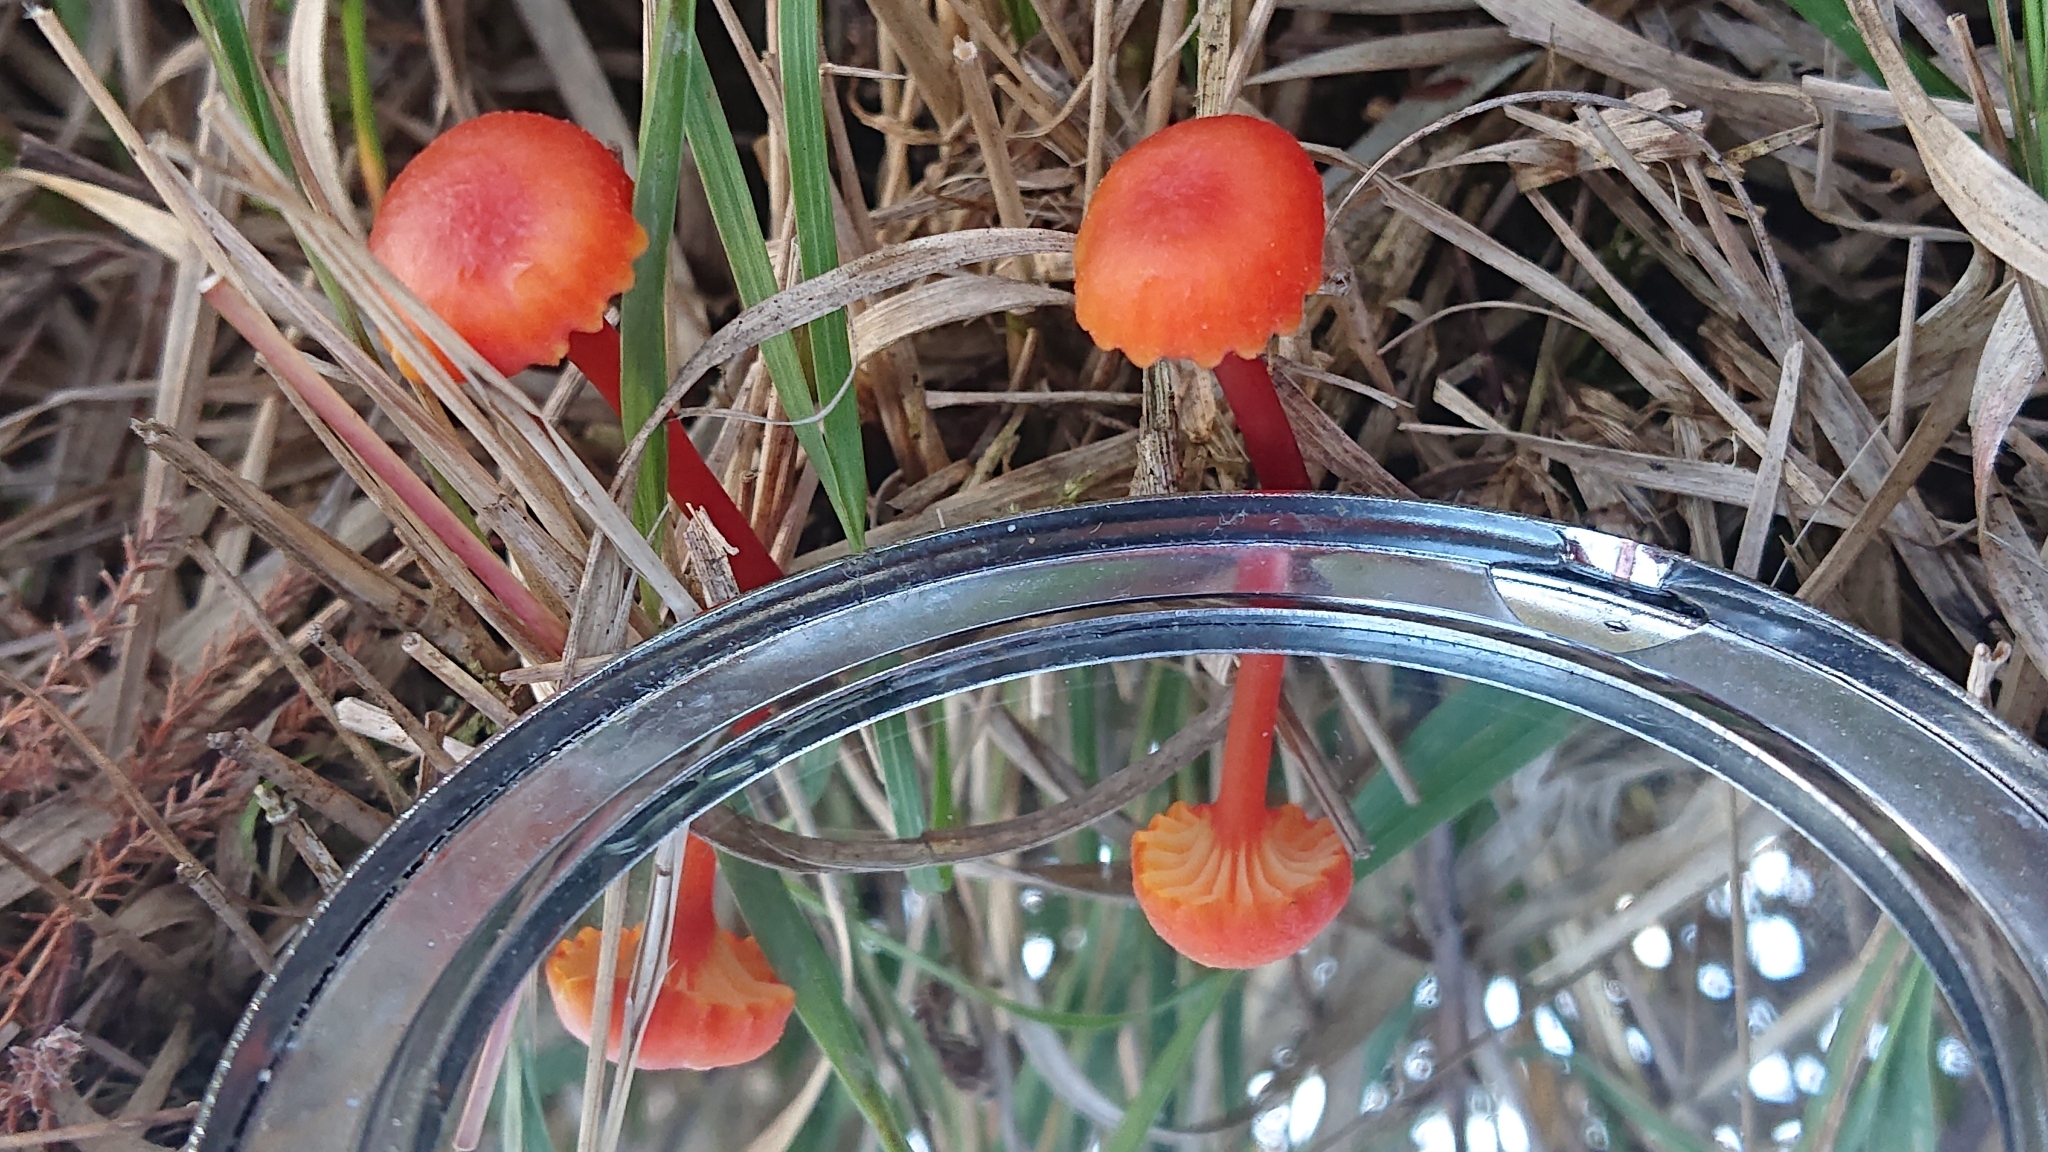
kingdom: Fungi
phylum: Basidiomycota
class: Agaricomycetes
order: Agaricales
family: Hygrophoraceae
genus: Hygrocybe
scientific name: Hygrocybe cantharellus
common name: Goblet waxcap
